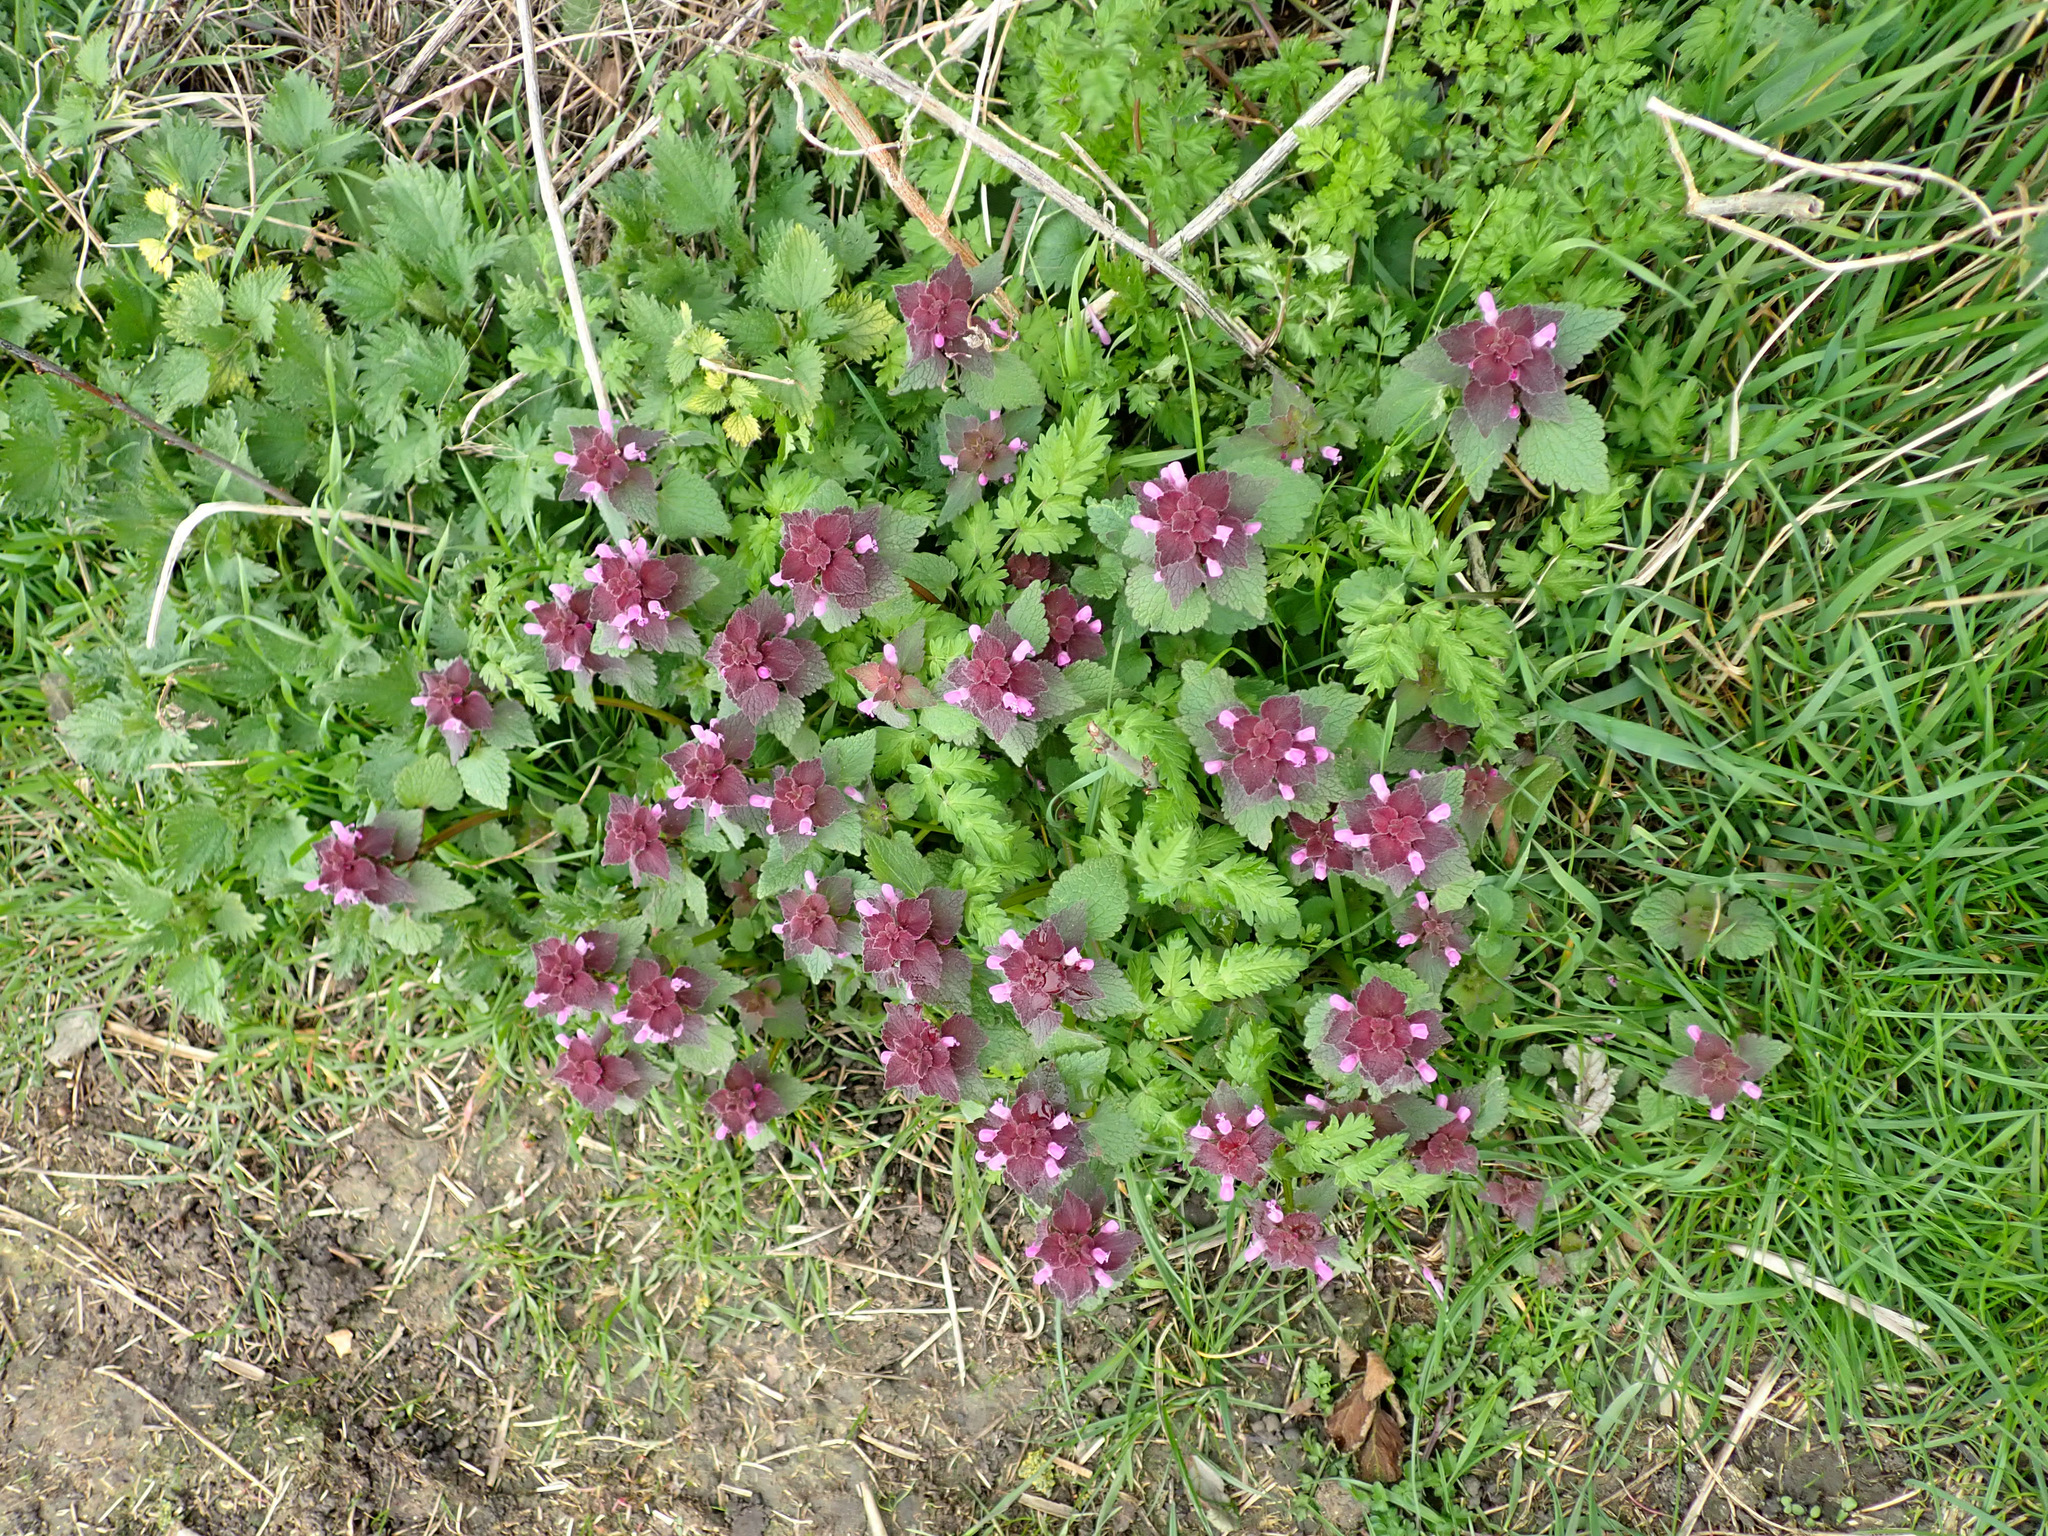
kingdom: Plantae
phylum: Tracheophyta
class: Magnoliopsida
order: Lamiales
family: Lamiaceae
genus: Lamium
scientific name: Lamium purpureum
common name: Red dead-nettle
